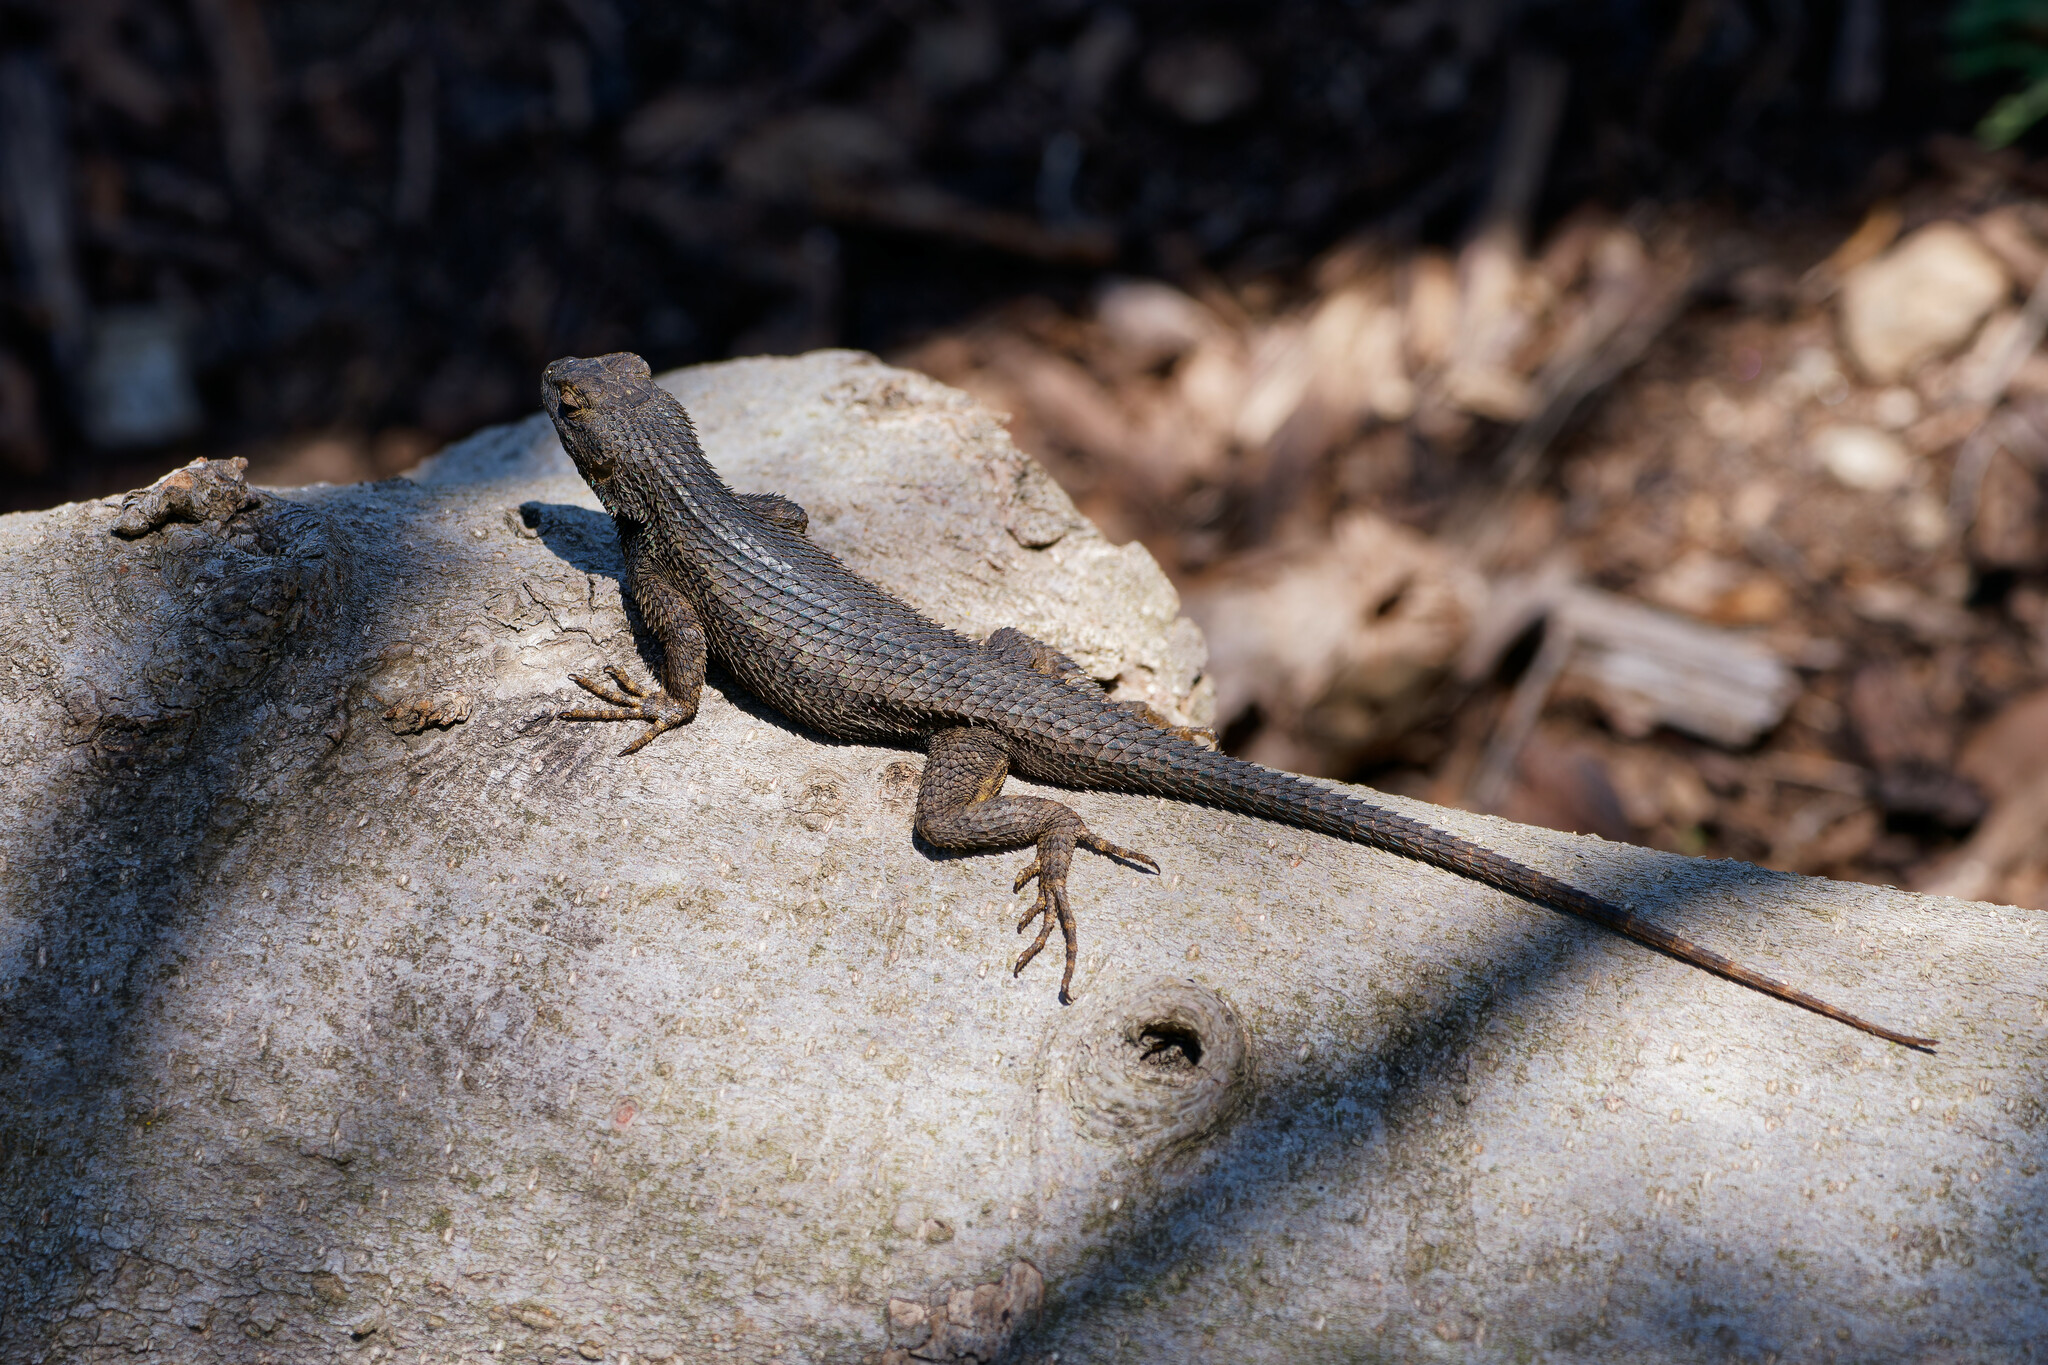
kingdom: Animalia
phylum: Chordata
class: Squamata
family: Phrynosomatidae
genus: Sceloporus
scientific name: Sceloporus occidentalis
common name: Western fence lizard
